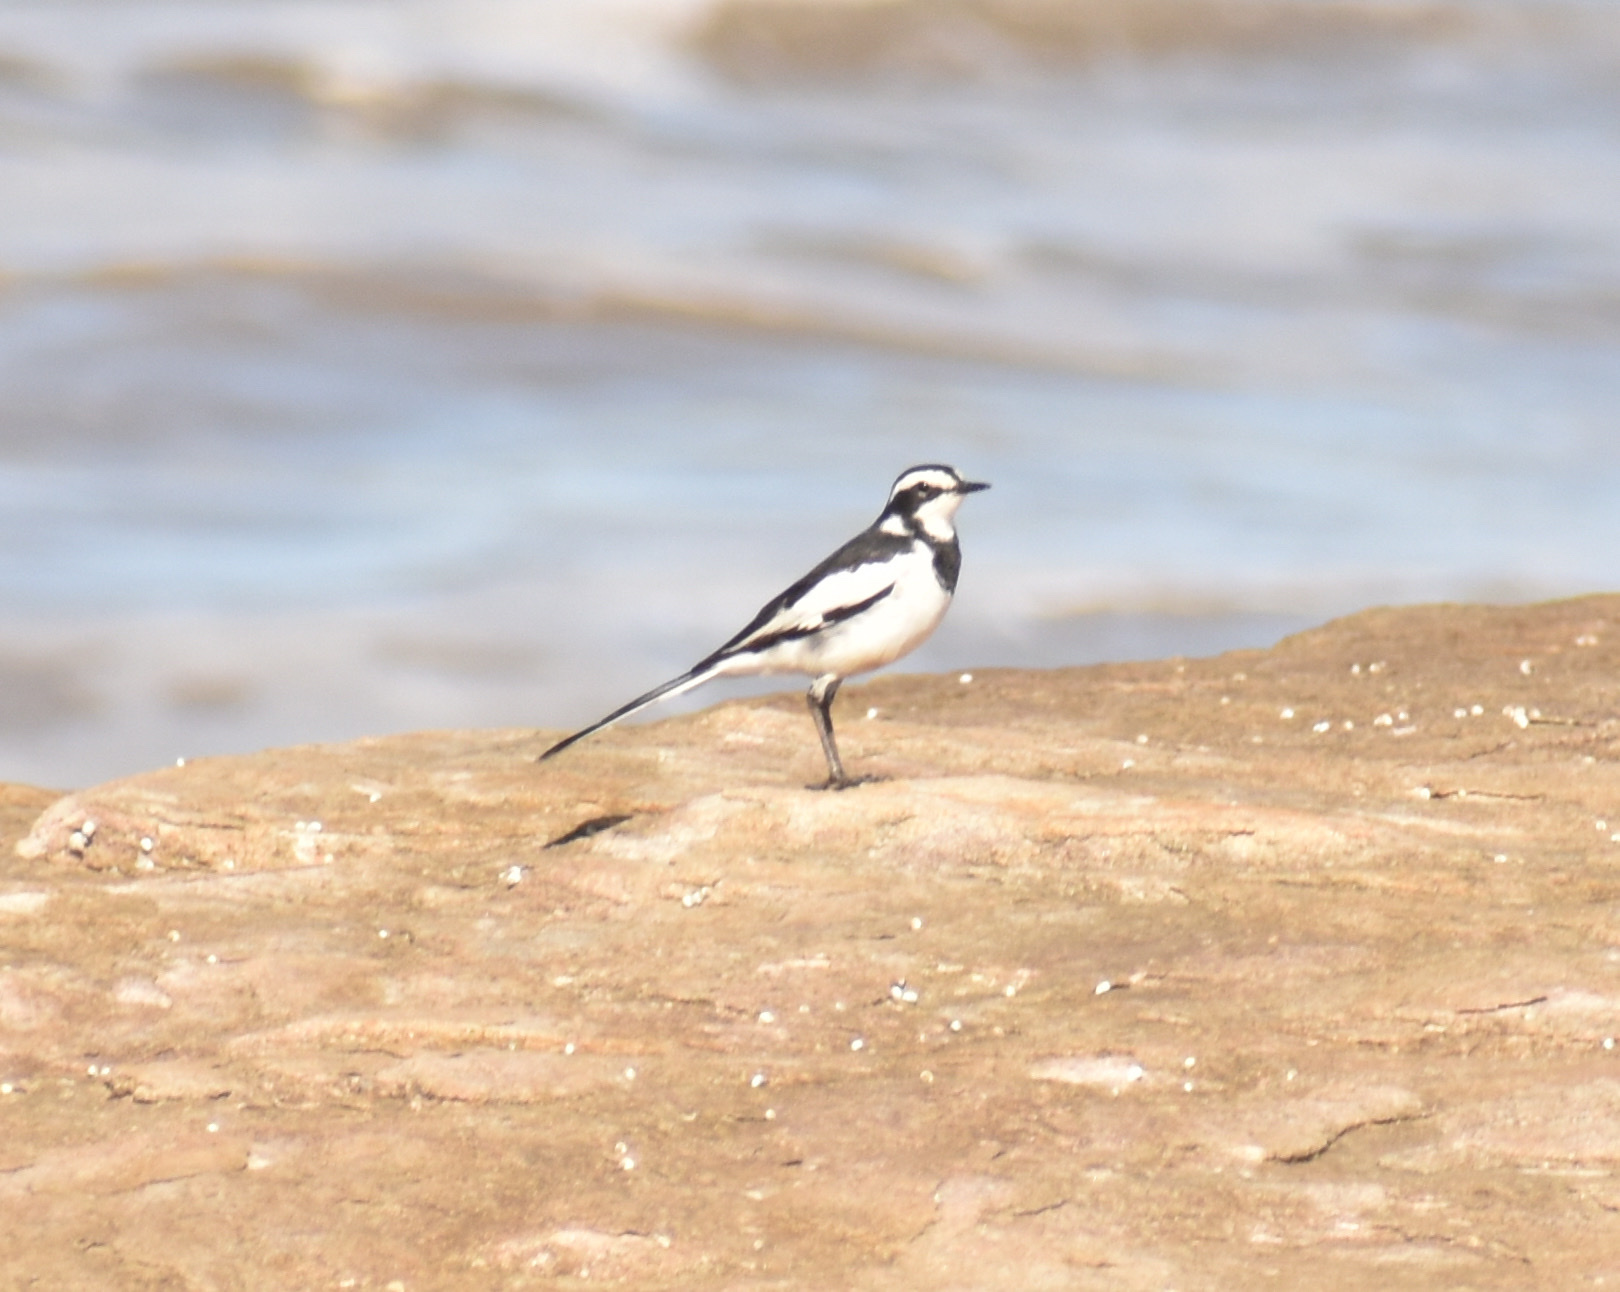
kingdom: Animalia
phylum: Chordata
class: Aves
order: Passeriformes
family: Motacillidae
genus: Motacilla
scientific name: Motacilla aguimp
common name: African pied wagtail
